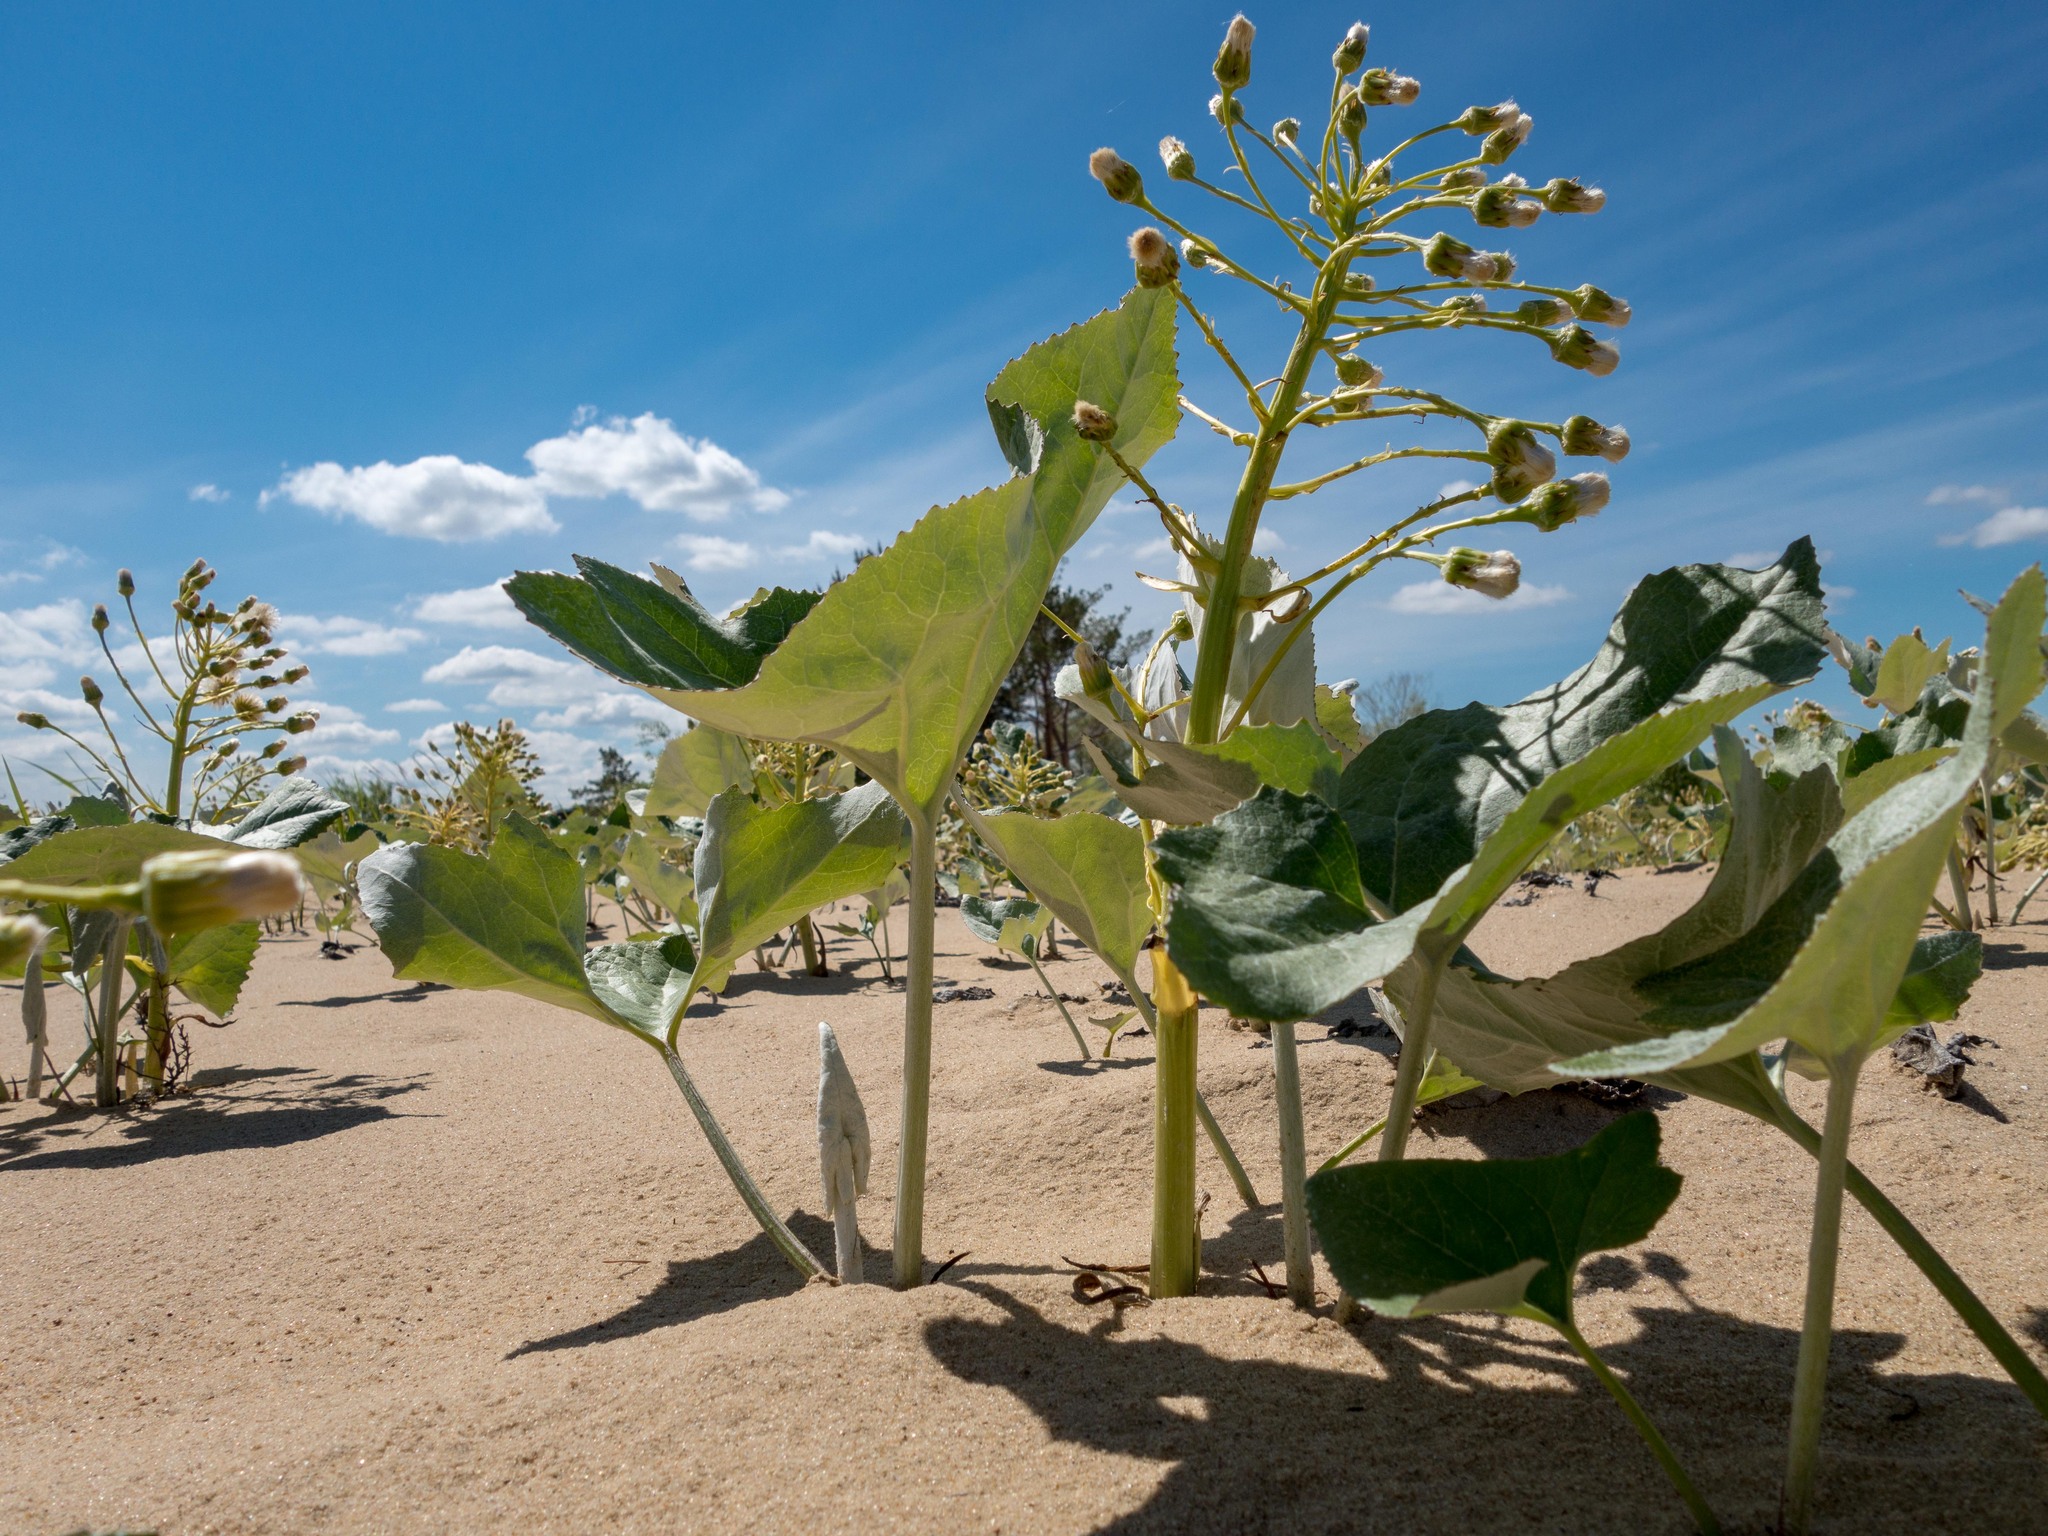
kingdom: Plantae
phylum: Tracheophyta
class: Magnoliopsida
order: Asterales
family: Asteraceae
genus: Petasites
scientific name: Petasites spurius
